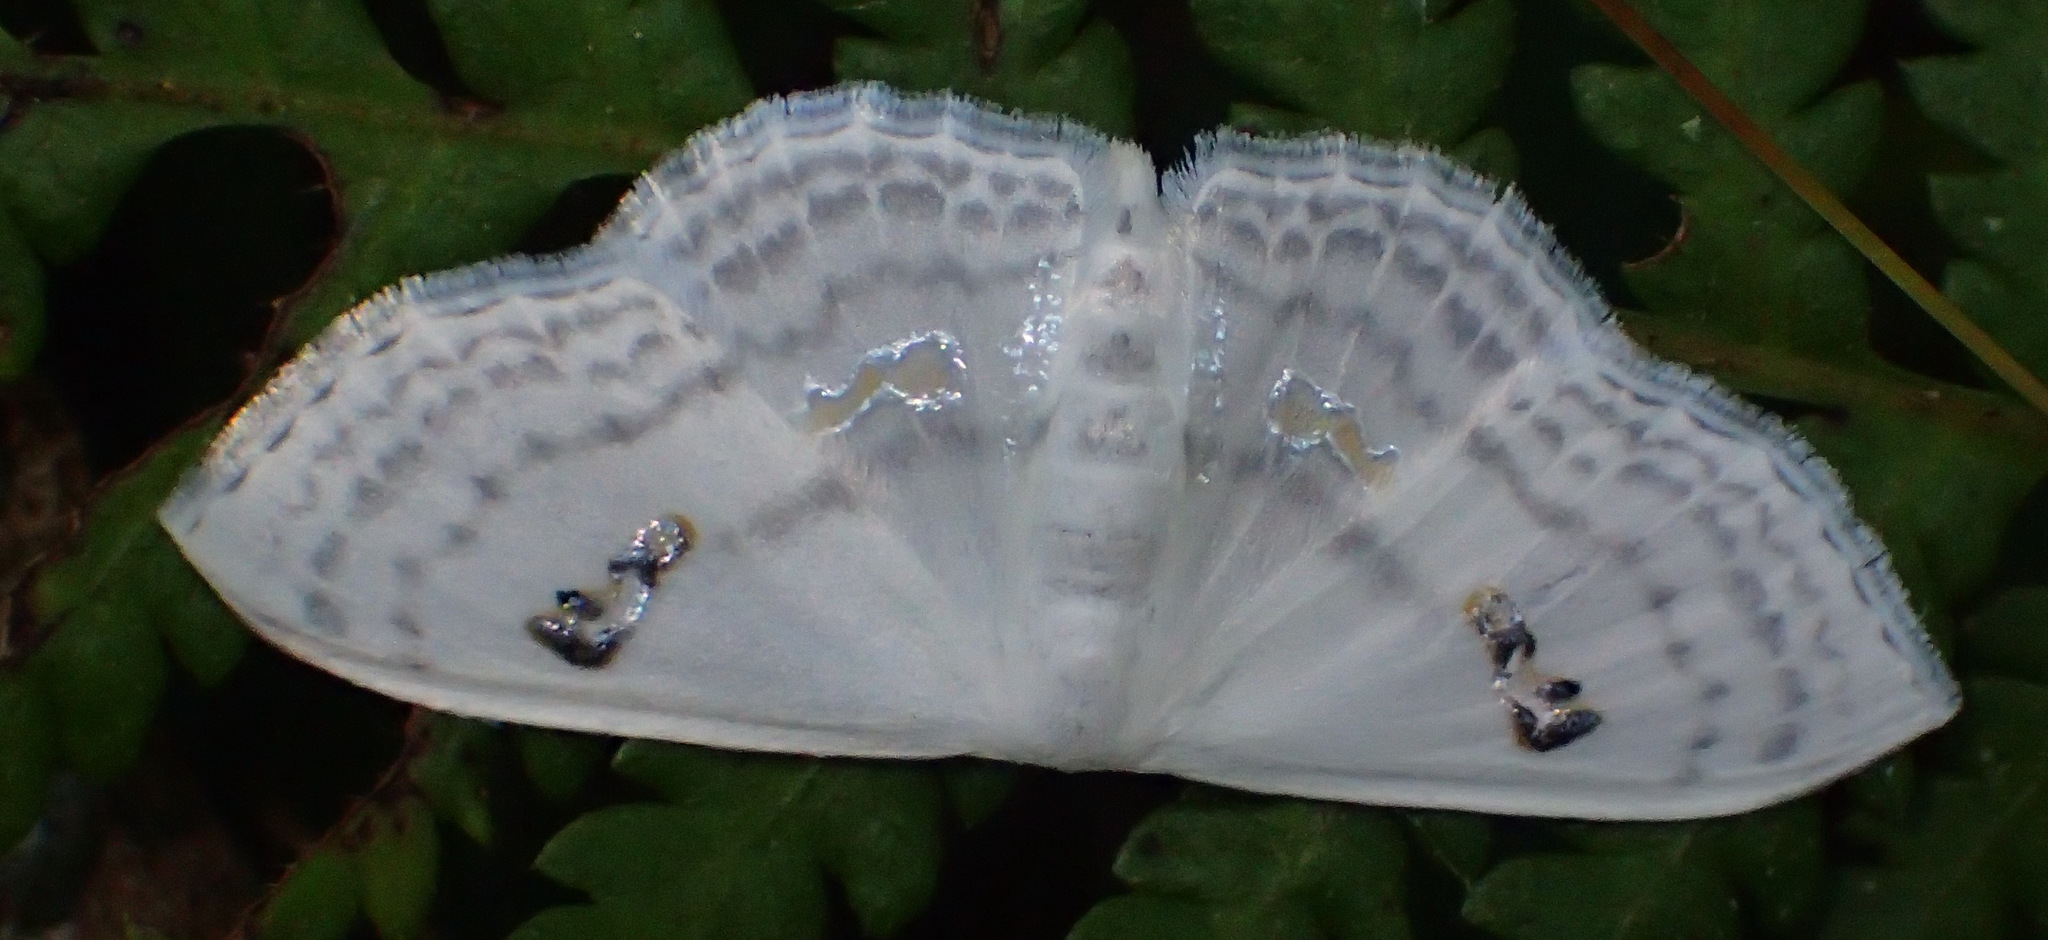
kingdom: Animalia
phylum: Arthropoda
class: Insecta
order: Lepidoptera
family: Geometridae
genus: Problepsis
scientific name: Problepsis aegretta
